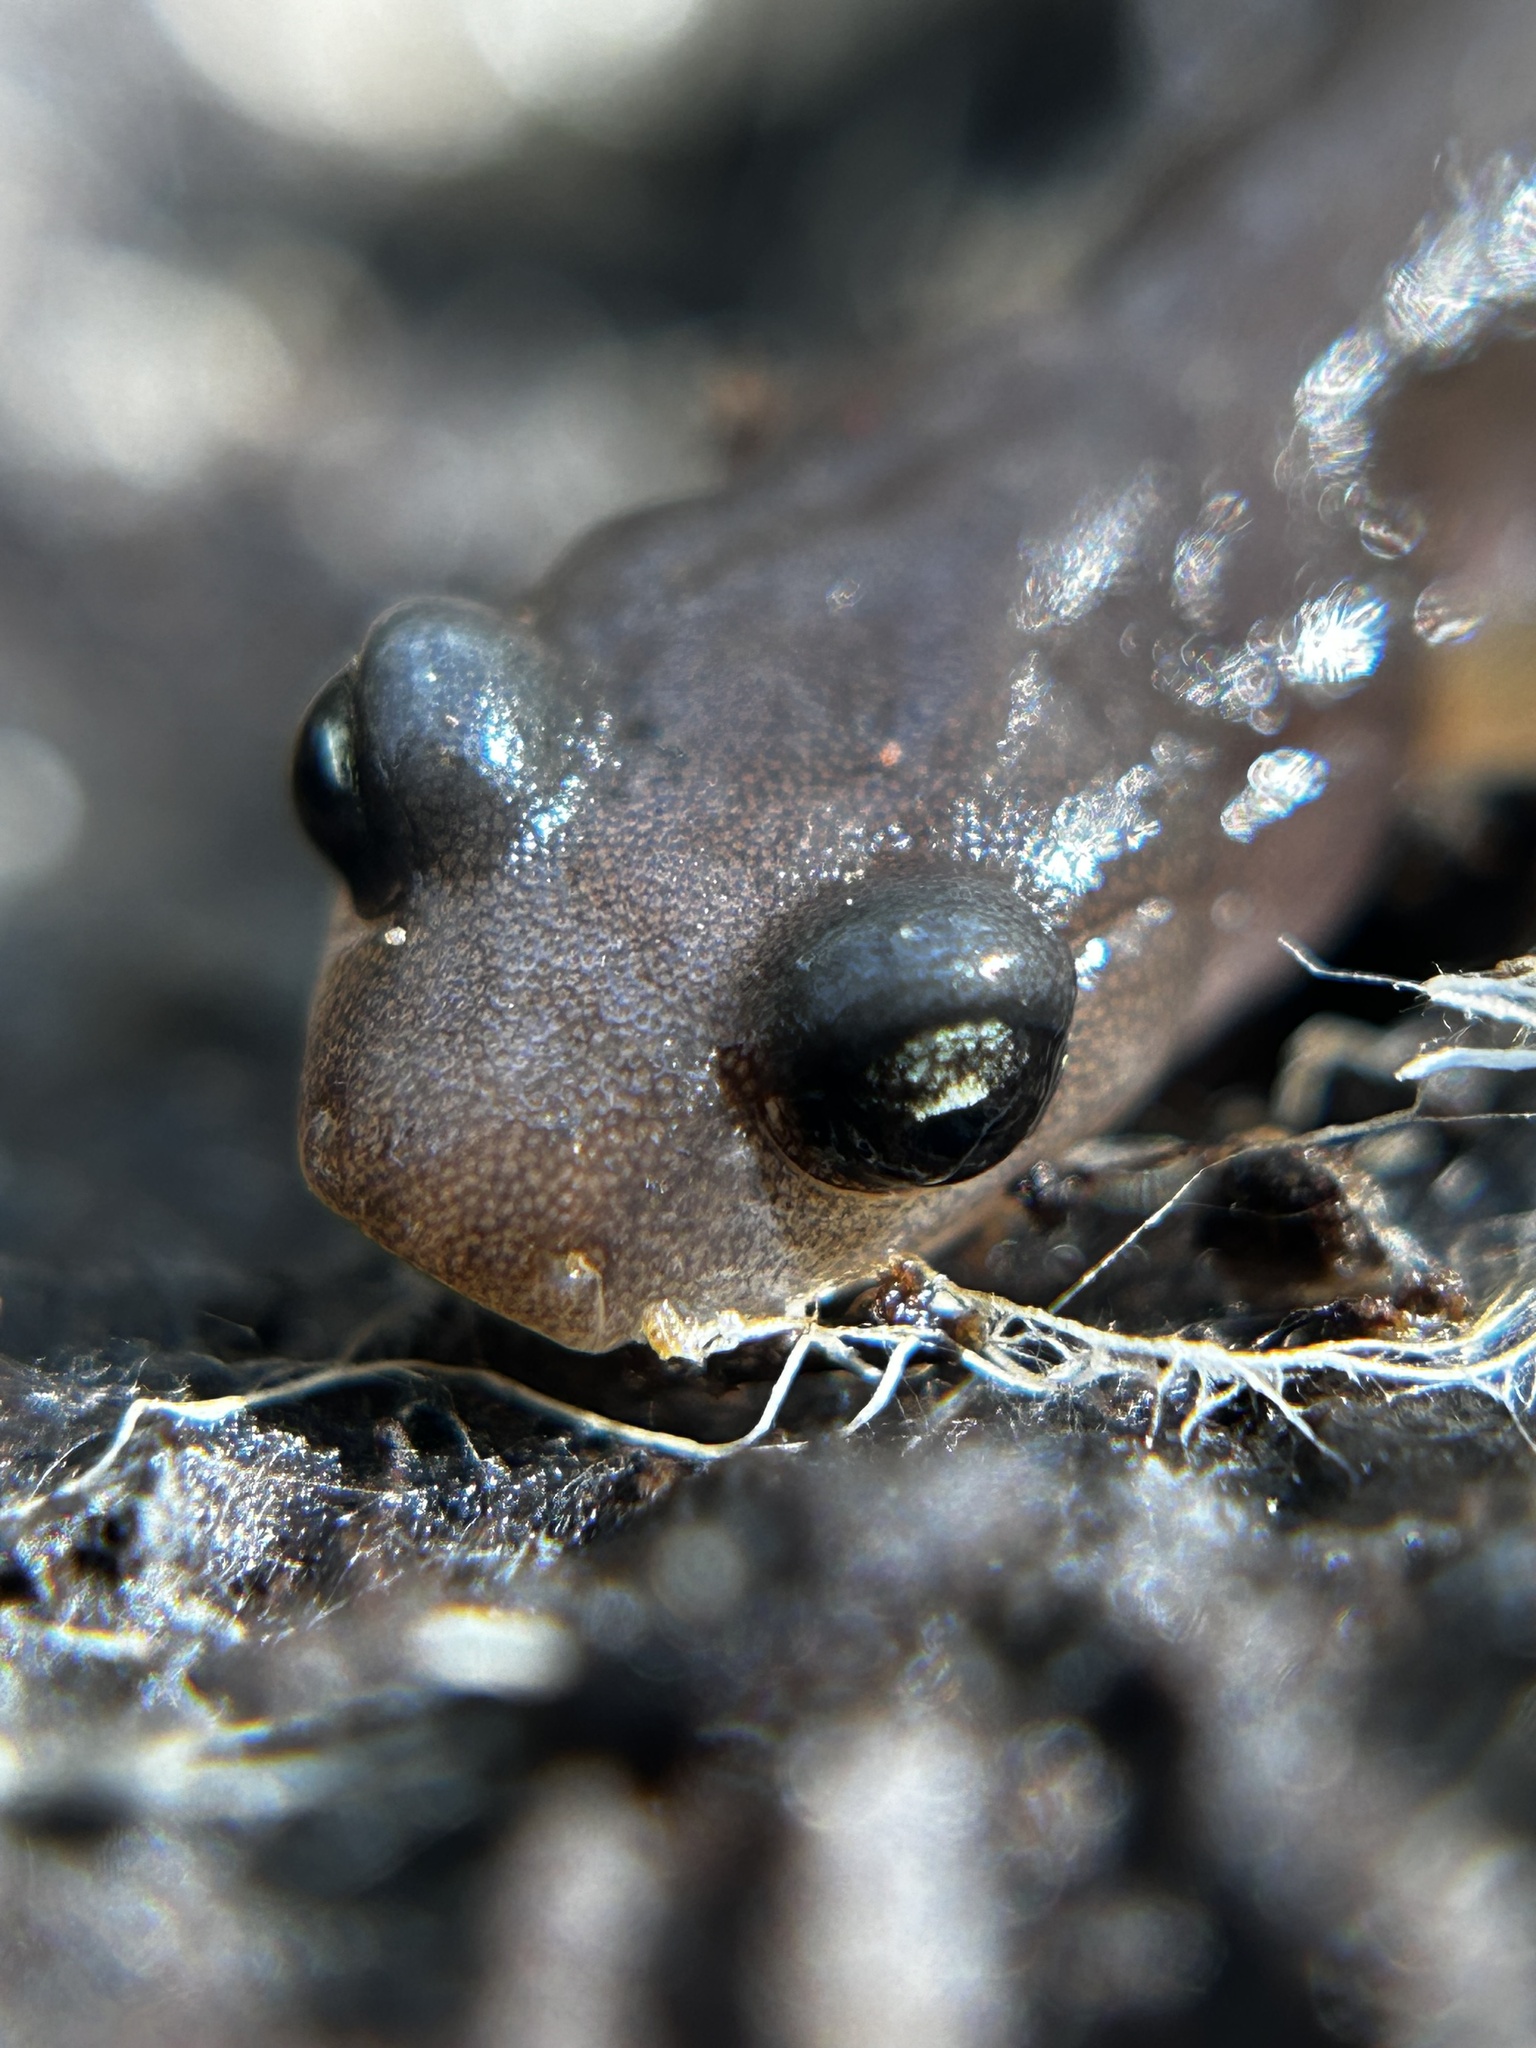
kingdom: Animalia
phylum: Chordata
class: Amphibia
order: Caudata
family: Plethodontidae
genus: Aneides
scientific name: Aneides lugubris
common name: Arboreal salamander
